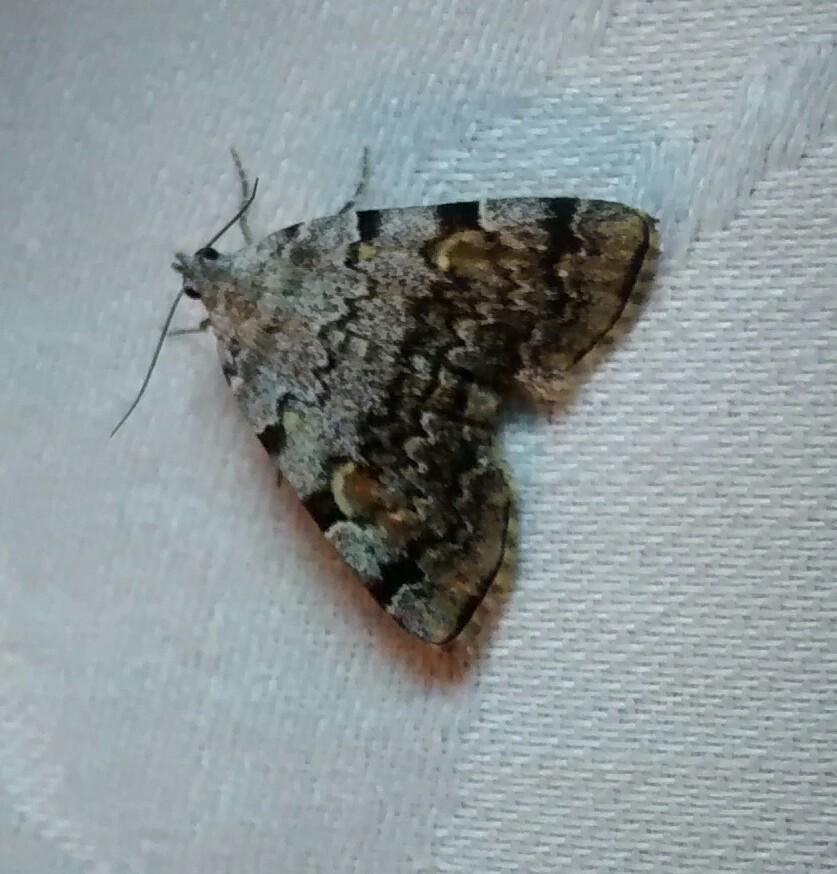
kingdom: Animalia
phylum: Arthropoda
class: Insecta
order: Lepidoptera
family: Erebidae
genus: Idia
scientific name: Idia americalis
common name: American idia moth
